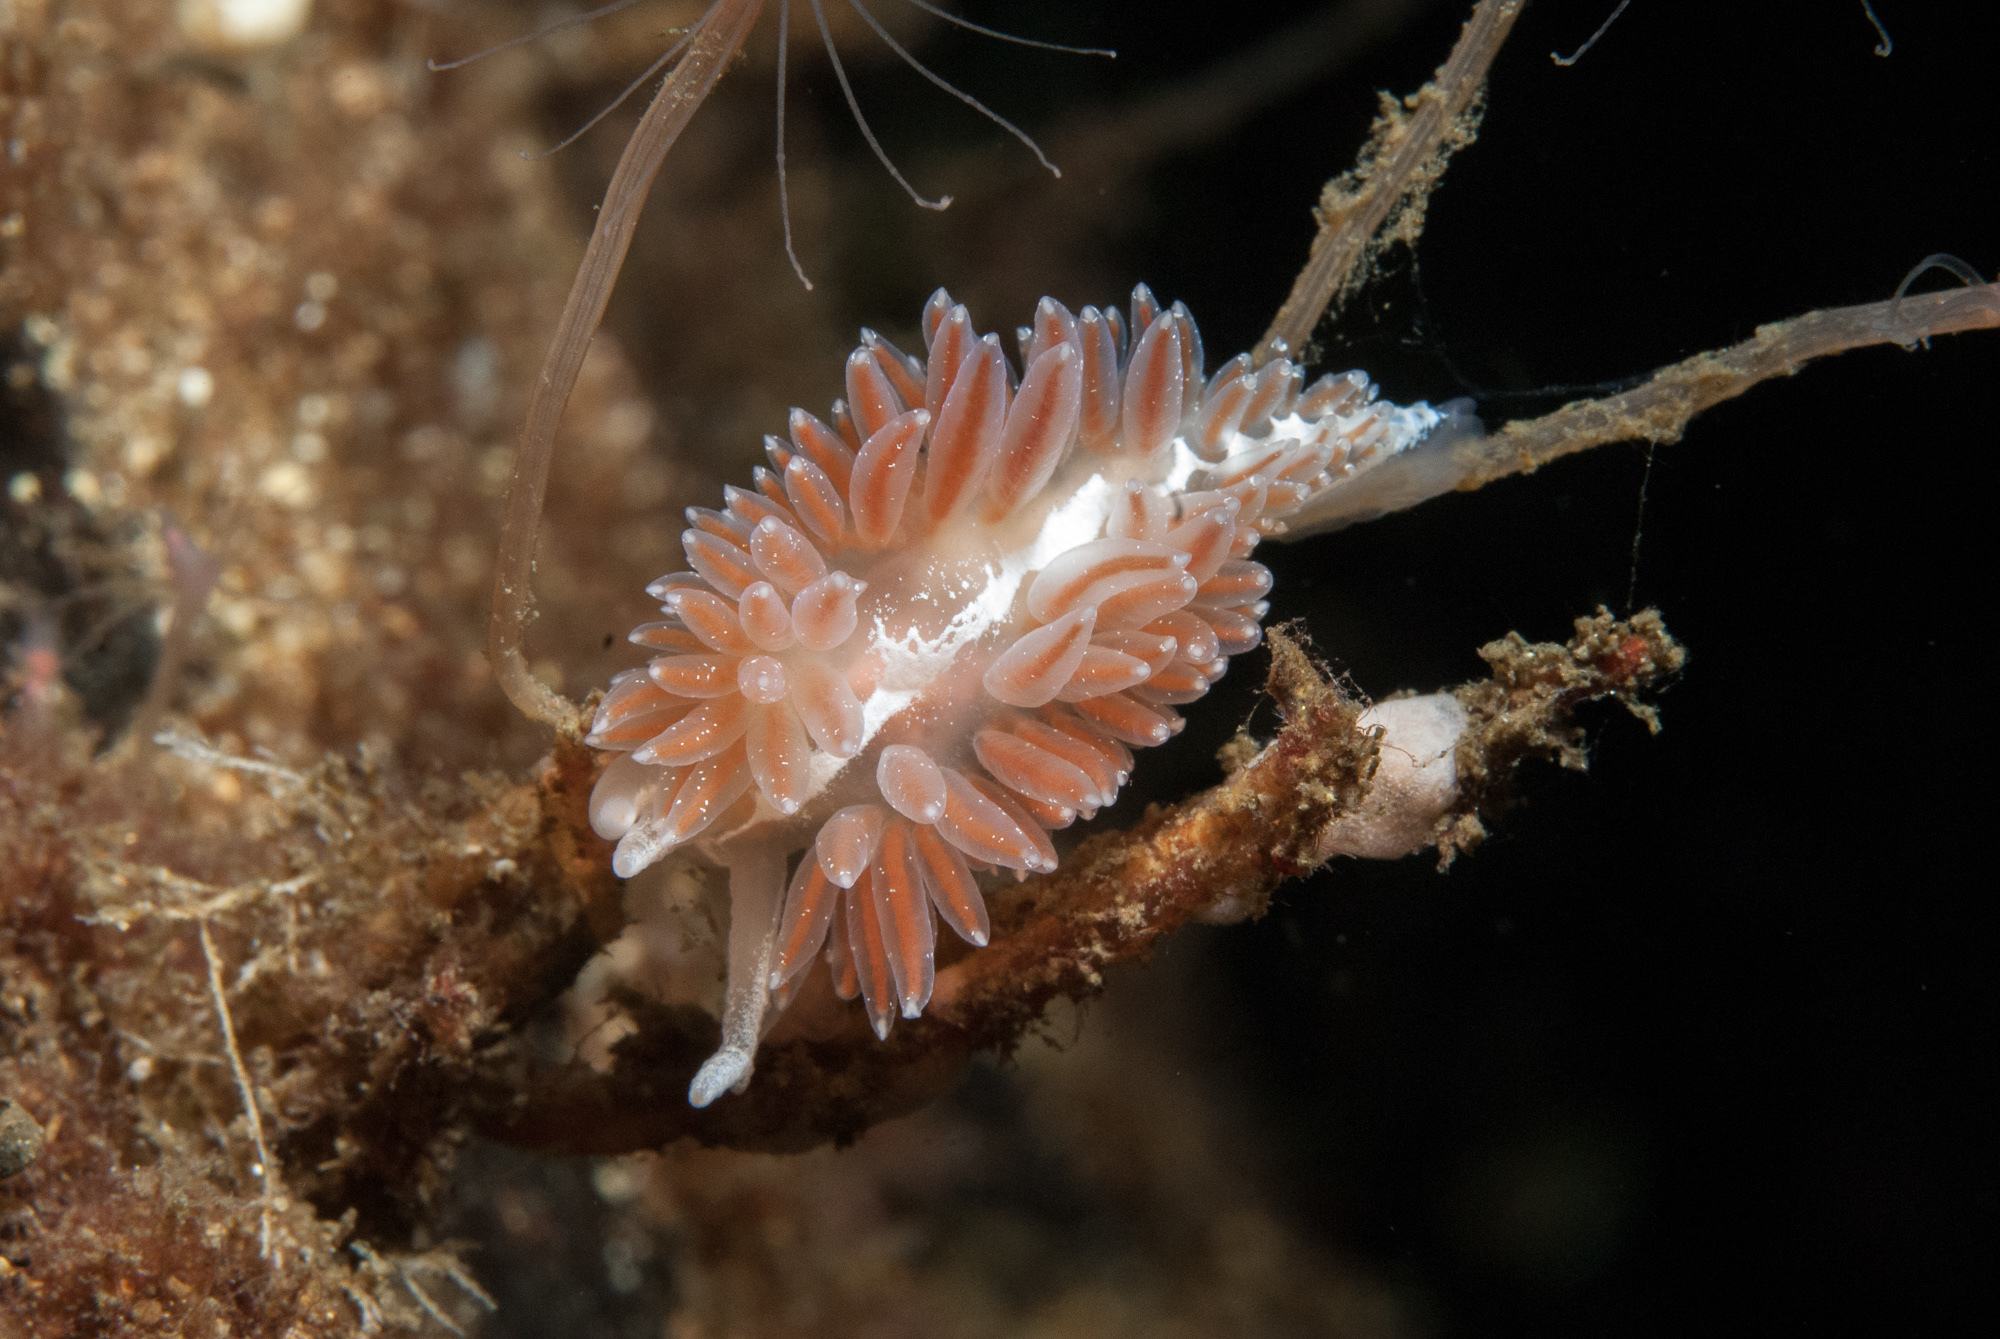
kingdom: Animalia
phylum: Mollusca
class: Gastropoda
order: Nudibranchia
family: Coryphellidae
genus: Coryphella
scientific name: Coryphella orjani
